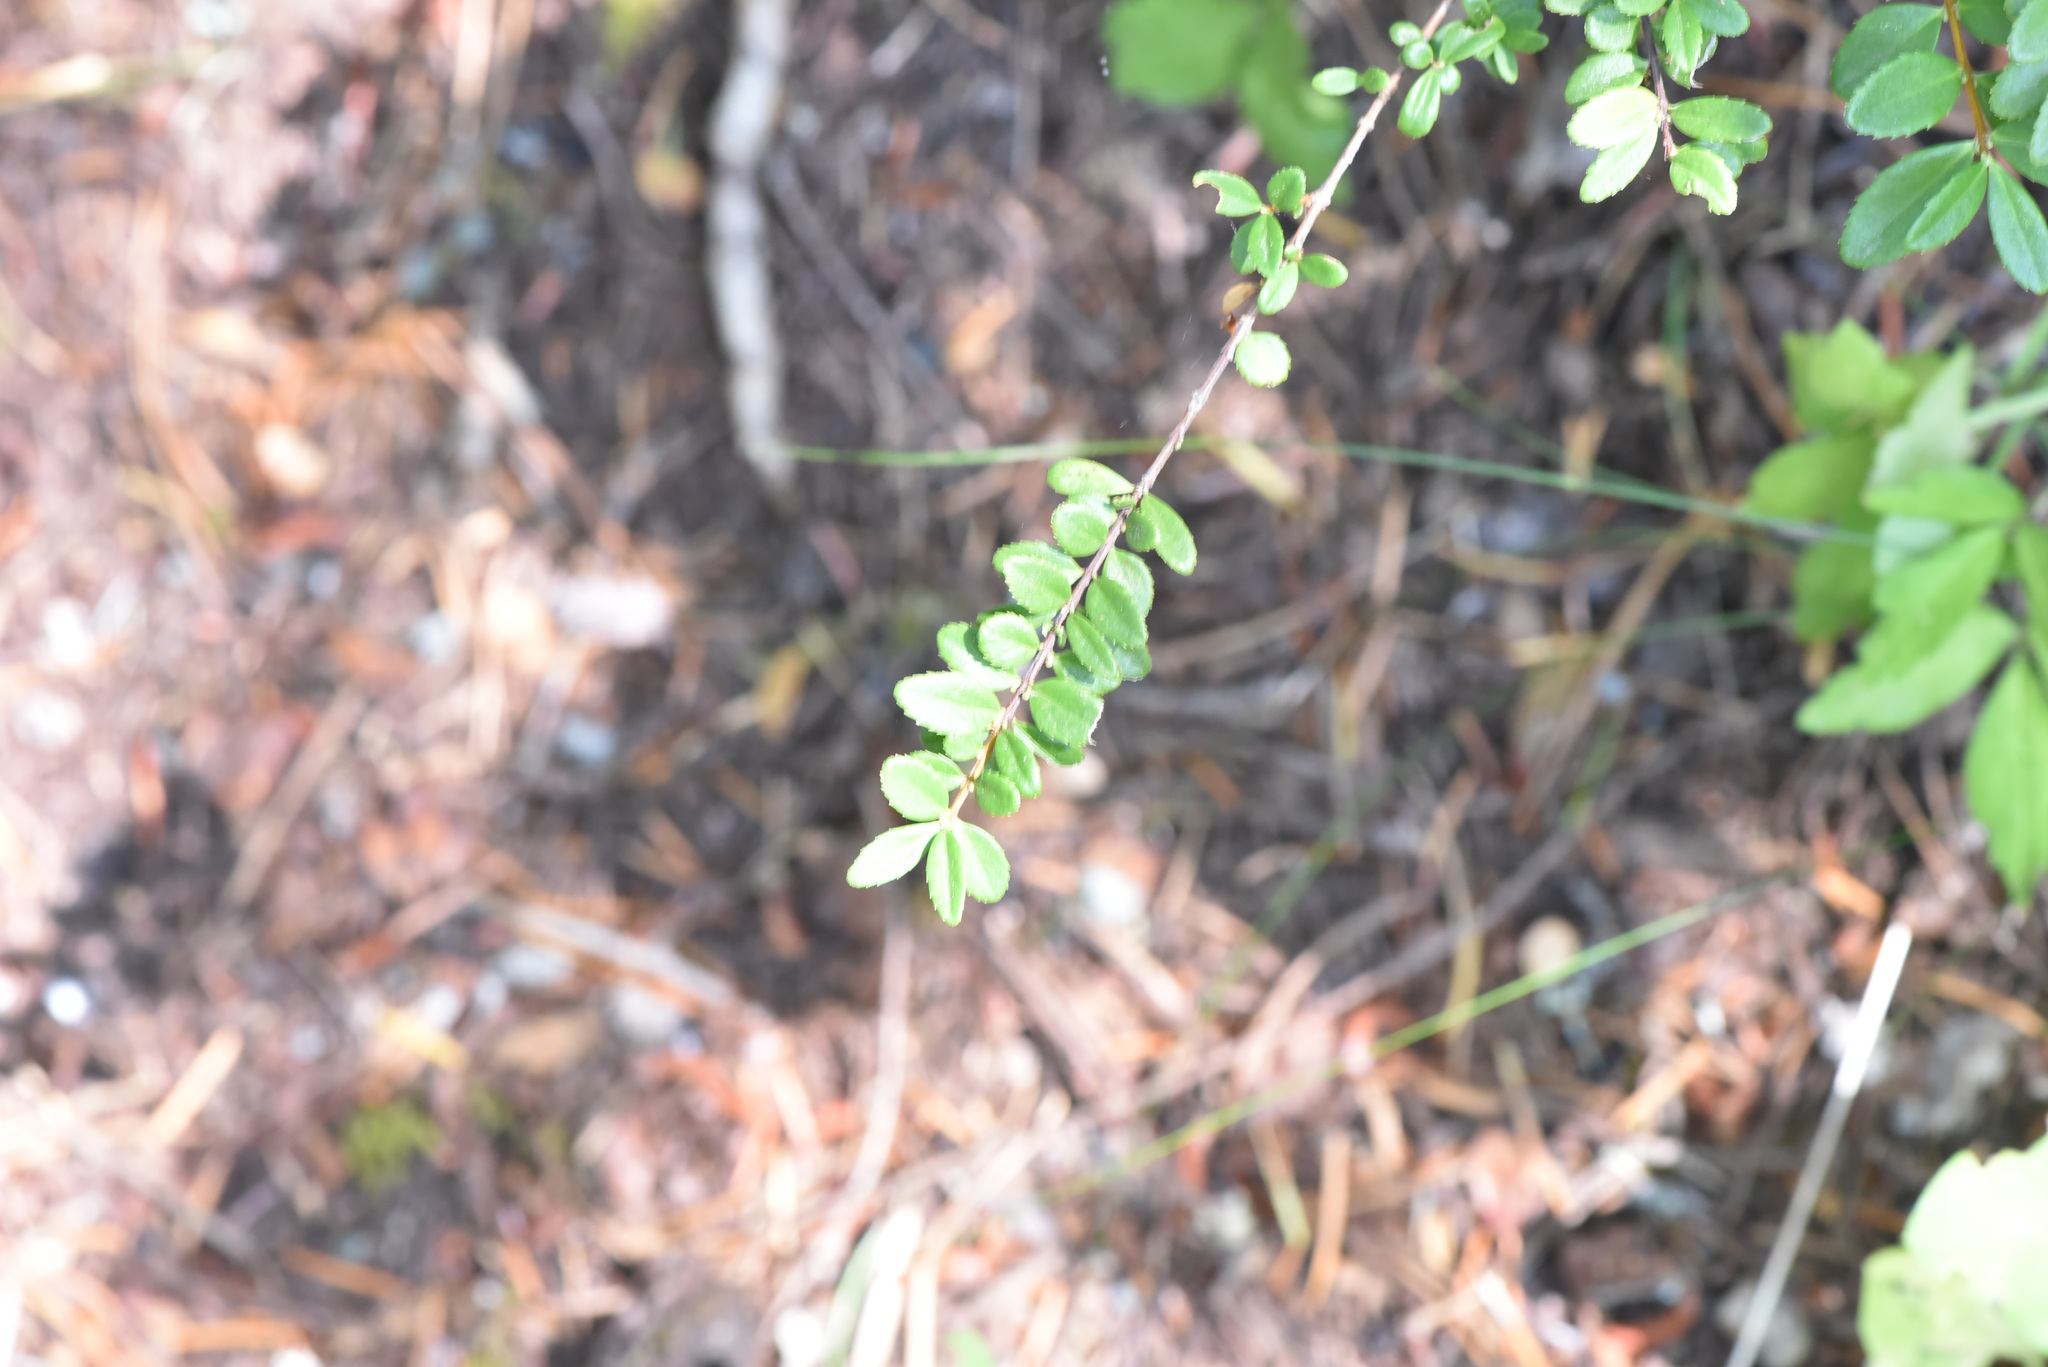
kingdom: Plantae
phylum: Tracheophyta
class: Magnoliopsida
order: Celastrales
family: Celastraceae
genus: Paxistima
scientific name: Paxistima myrsinites
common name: Mountain-lover
